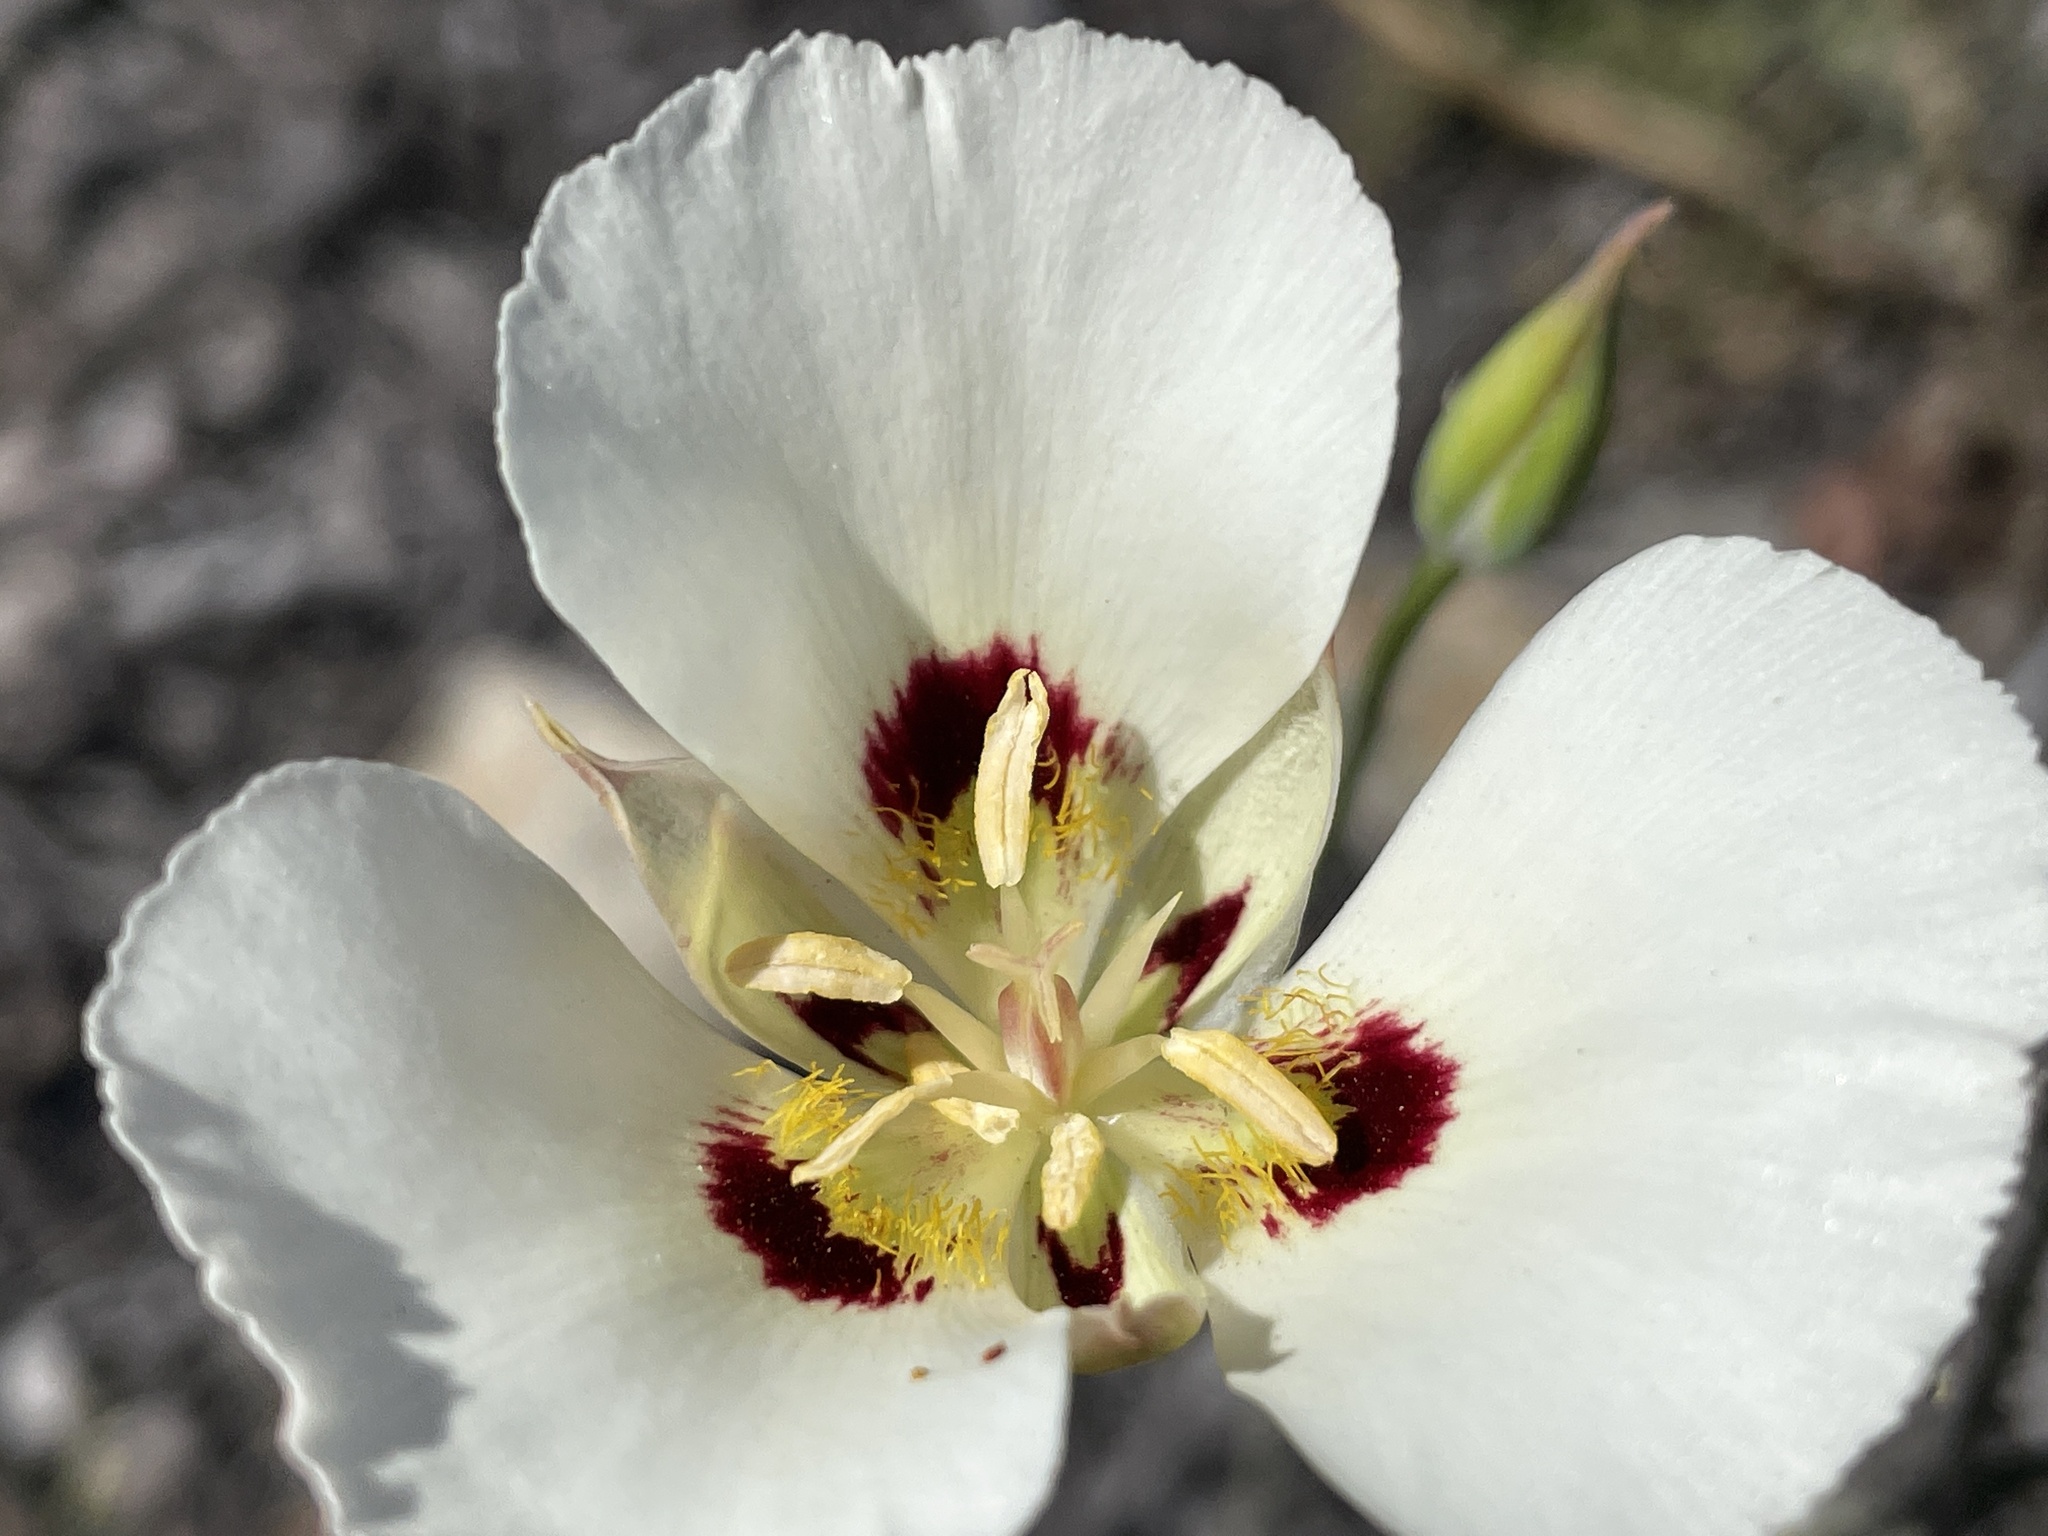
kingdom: Plantae
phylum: Tracheophyta
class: Liliopsida
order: Liliales
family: Liliaceae
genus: Calochortus
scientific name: Calochortus dunnii
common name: Dunn's mariposa-lily
